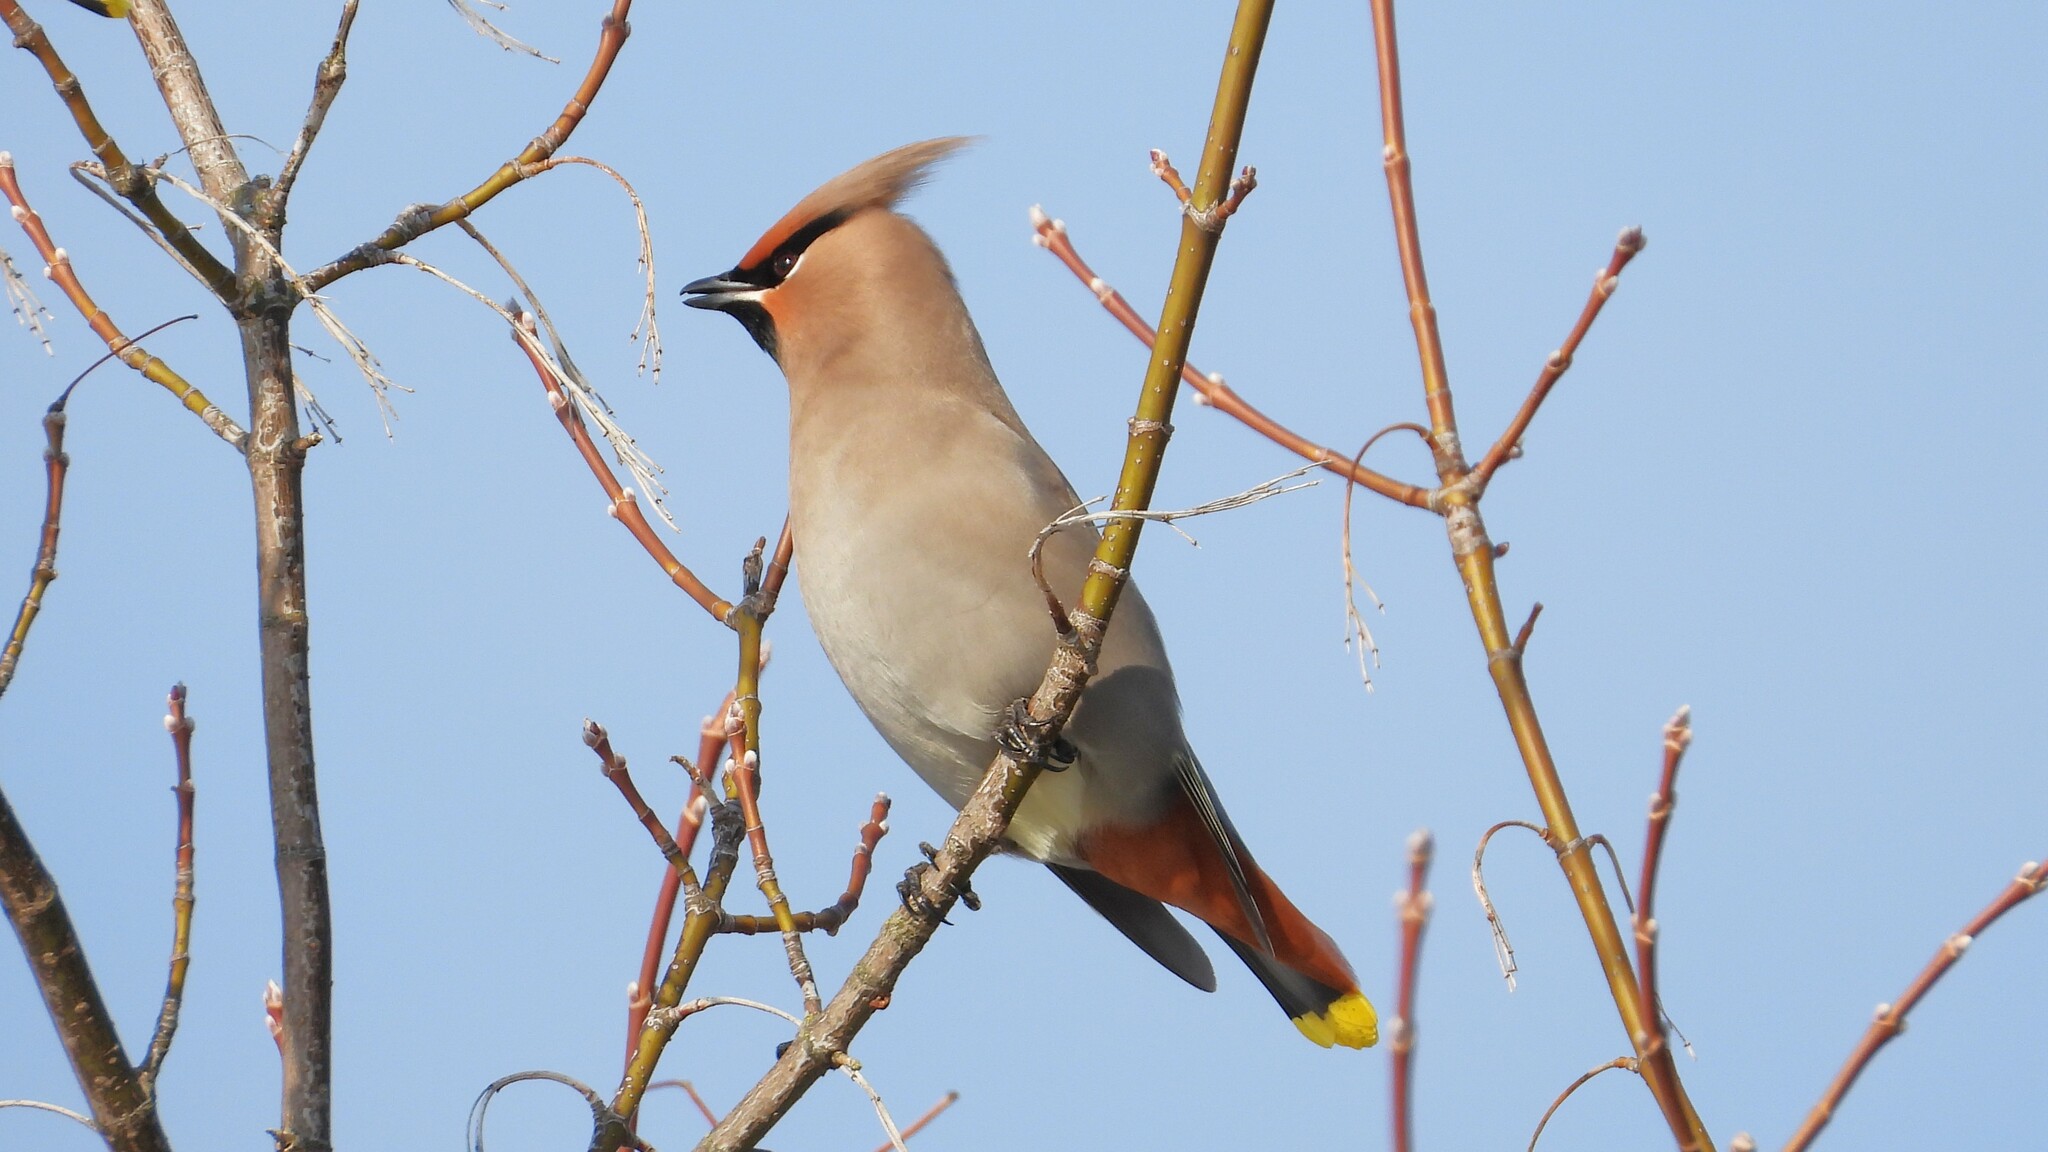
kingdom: Animalia
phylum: Chordata
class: Aves
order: Passeriformes
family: Bombycillidae
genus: Bombycilla
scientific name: Bombycilla garrulus
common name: Bohemian waxwing
